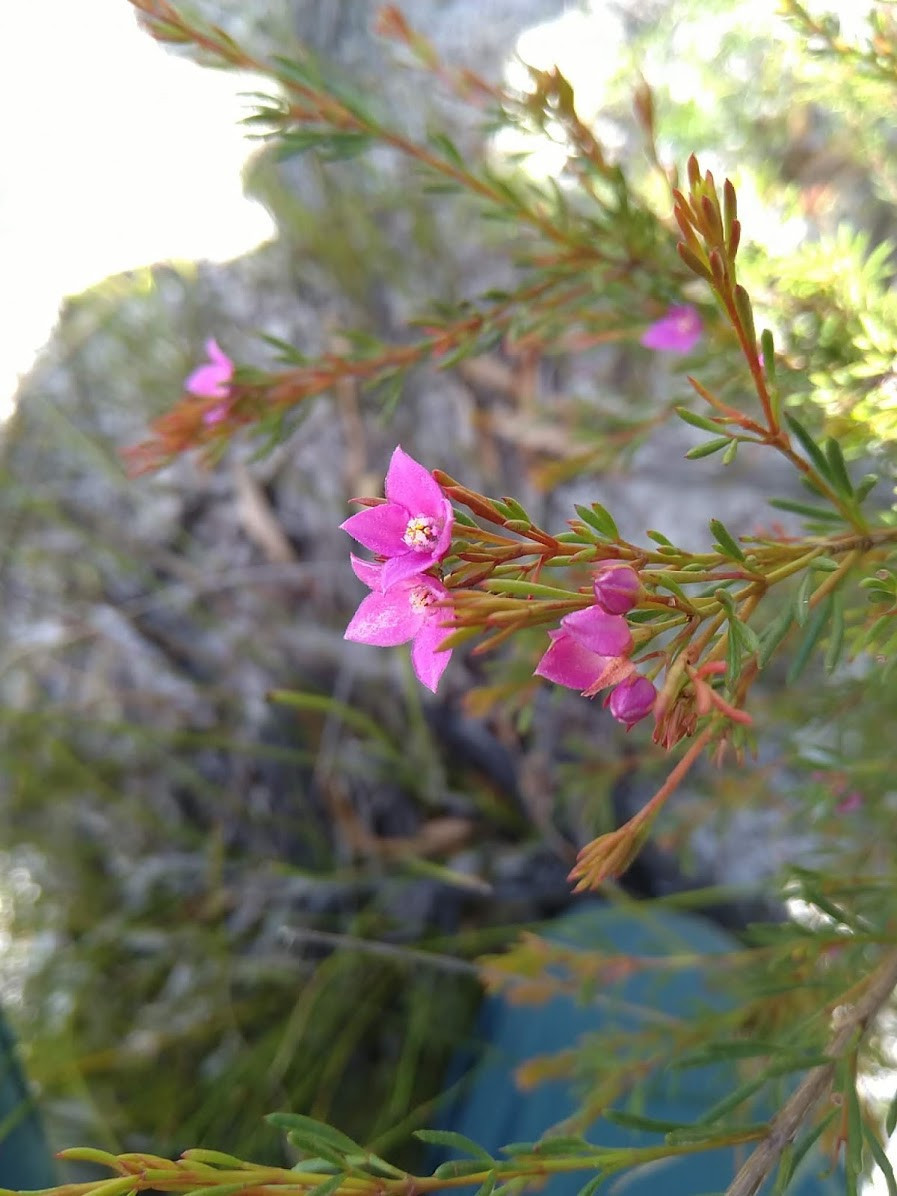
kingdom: Plantae
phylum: Tracheophyta
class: Magnoliopsida
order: Sapindales
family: Rutaceae
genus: Boronia
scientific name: Boronia falcifolia
